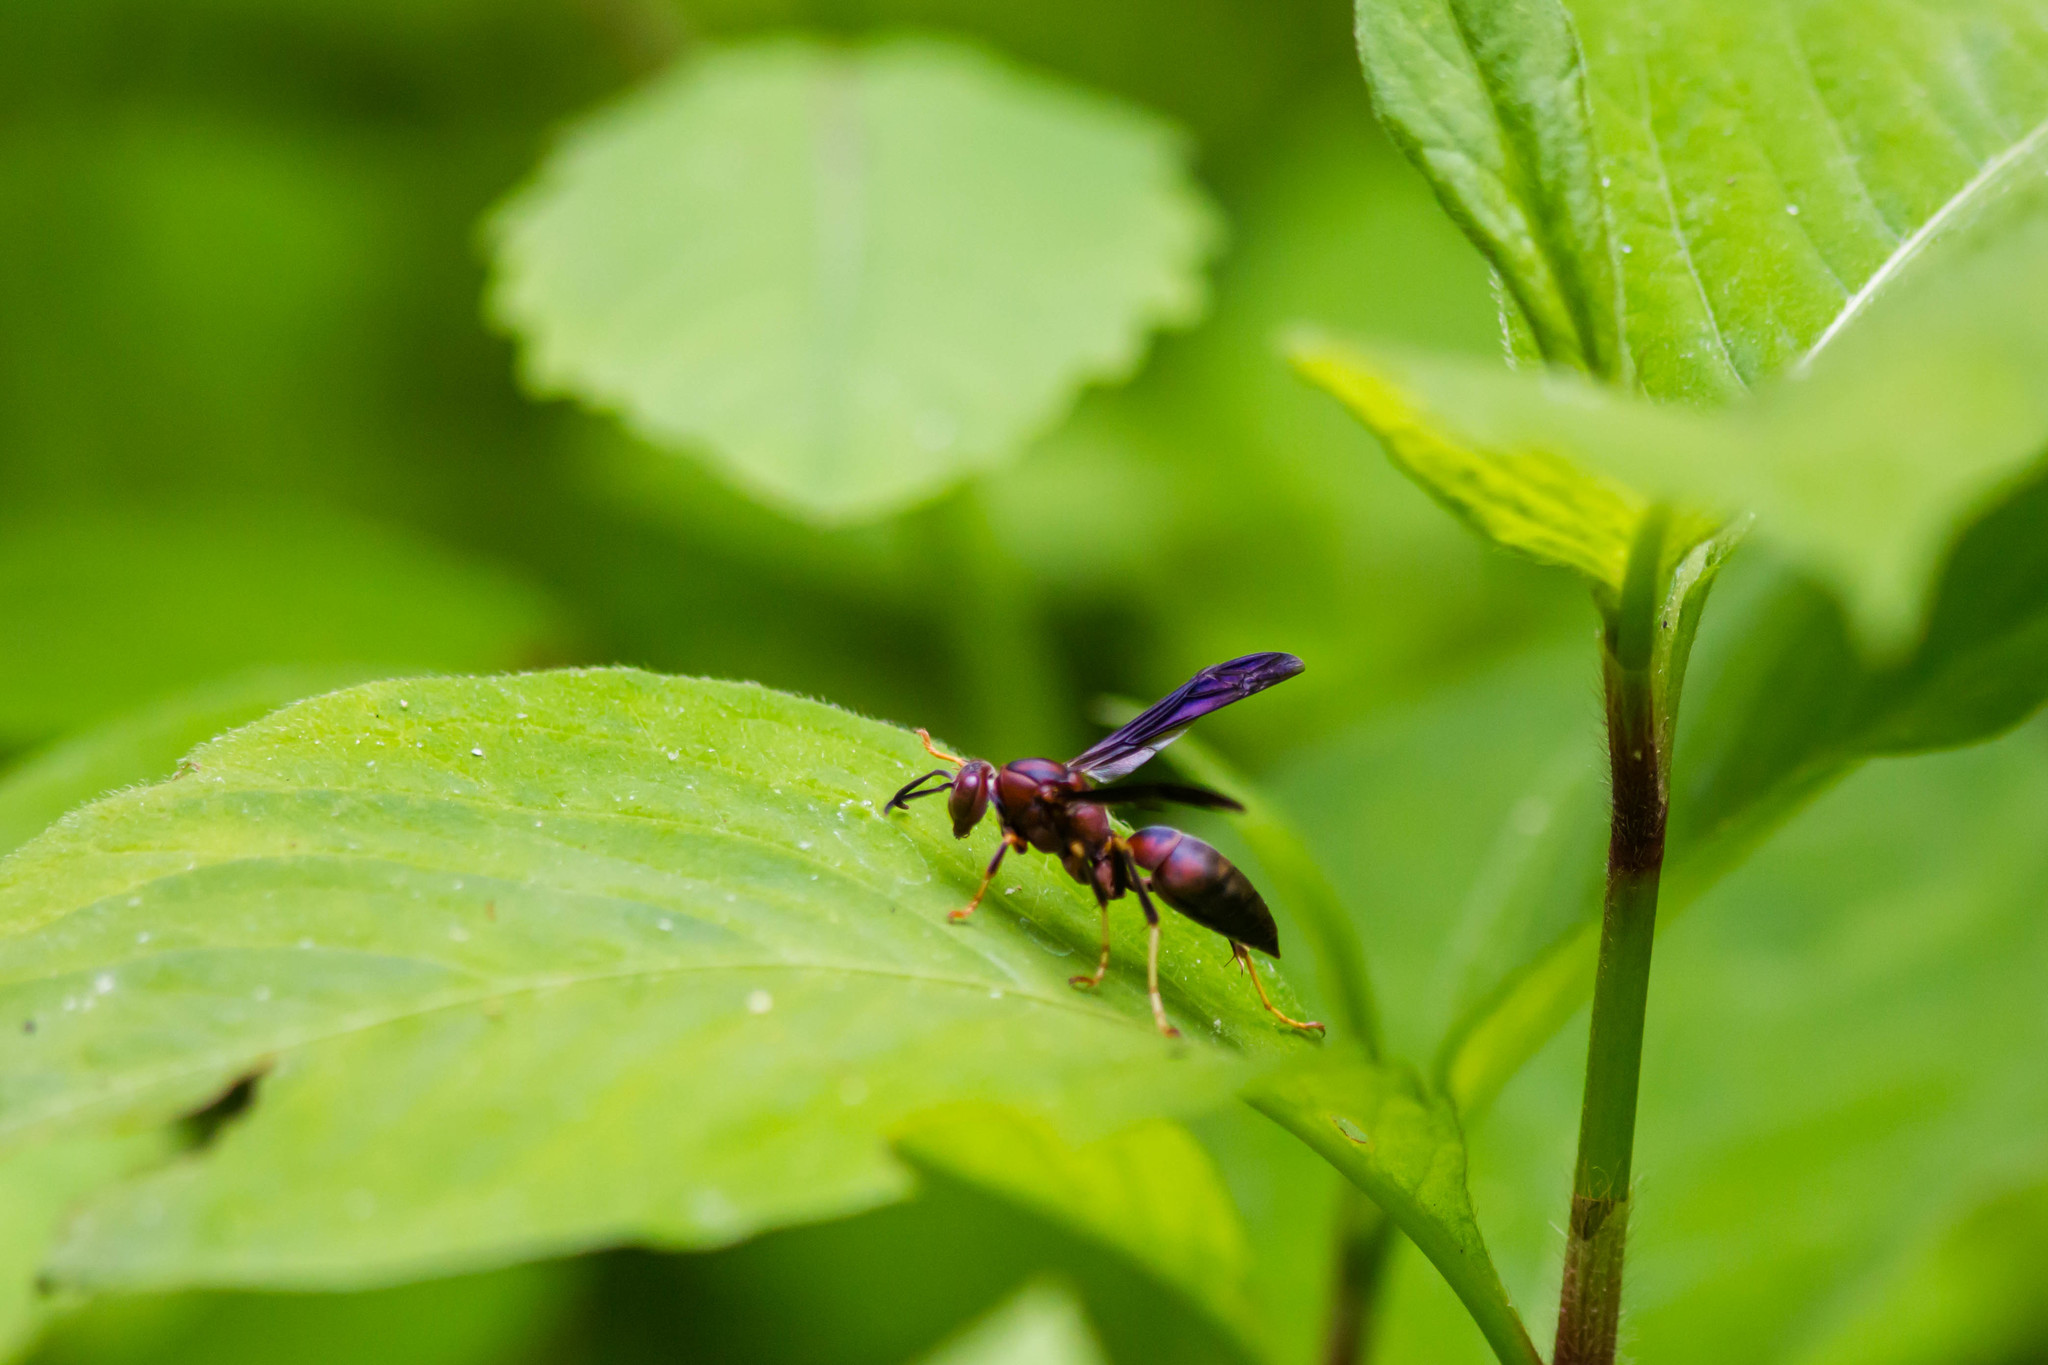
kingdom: Animalia
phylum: Arthropoda
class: Insecta
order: Hymenoptera
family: Eumenidae
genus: Polistes
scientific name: Polistes metricus
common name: Metric paper wasp
